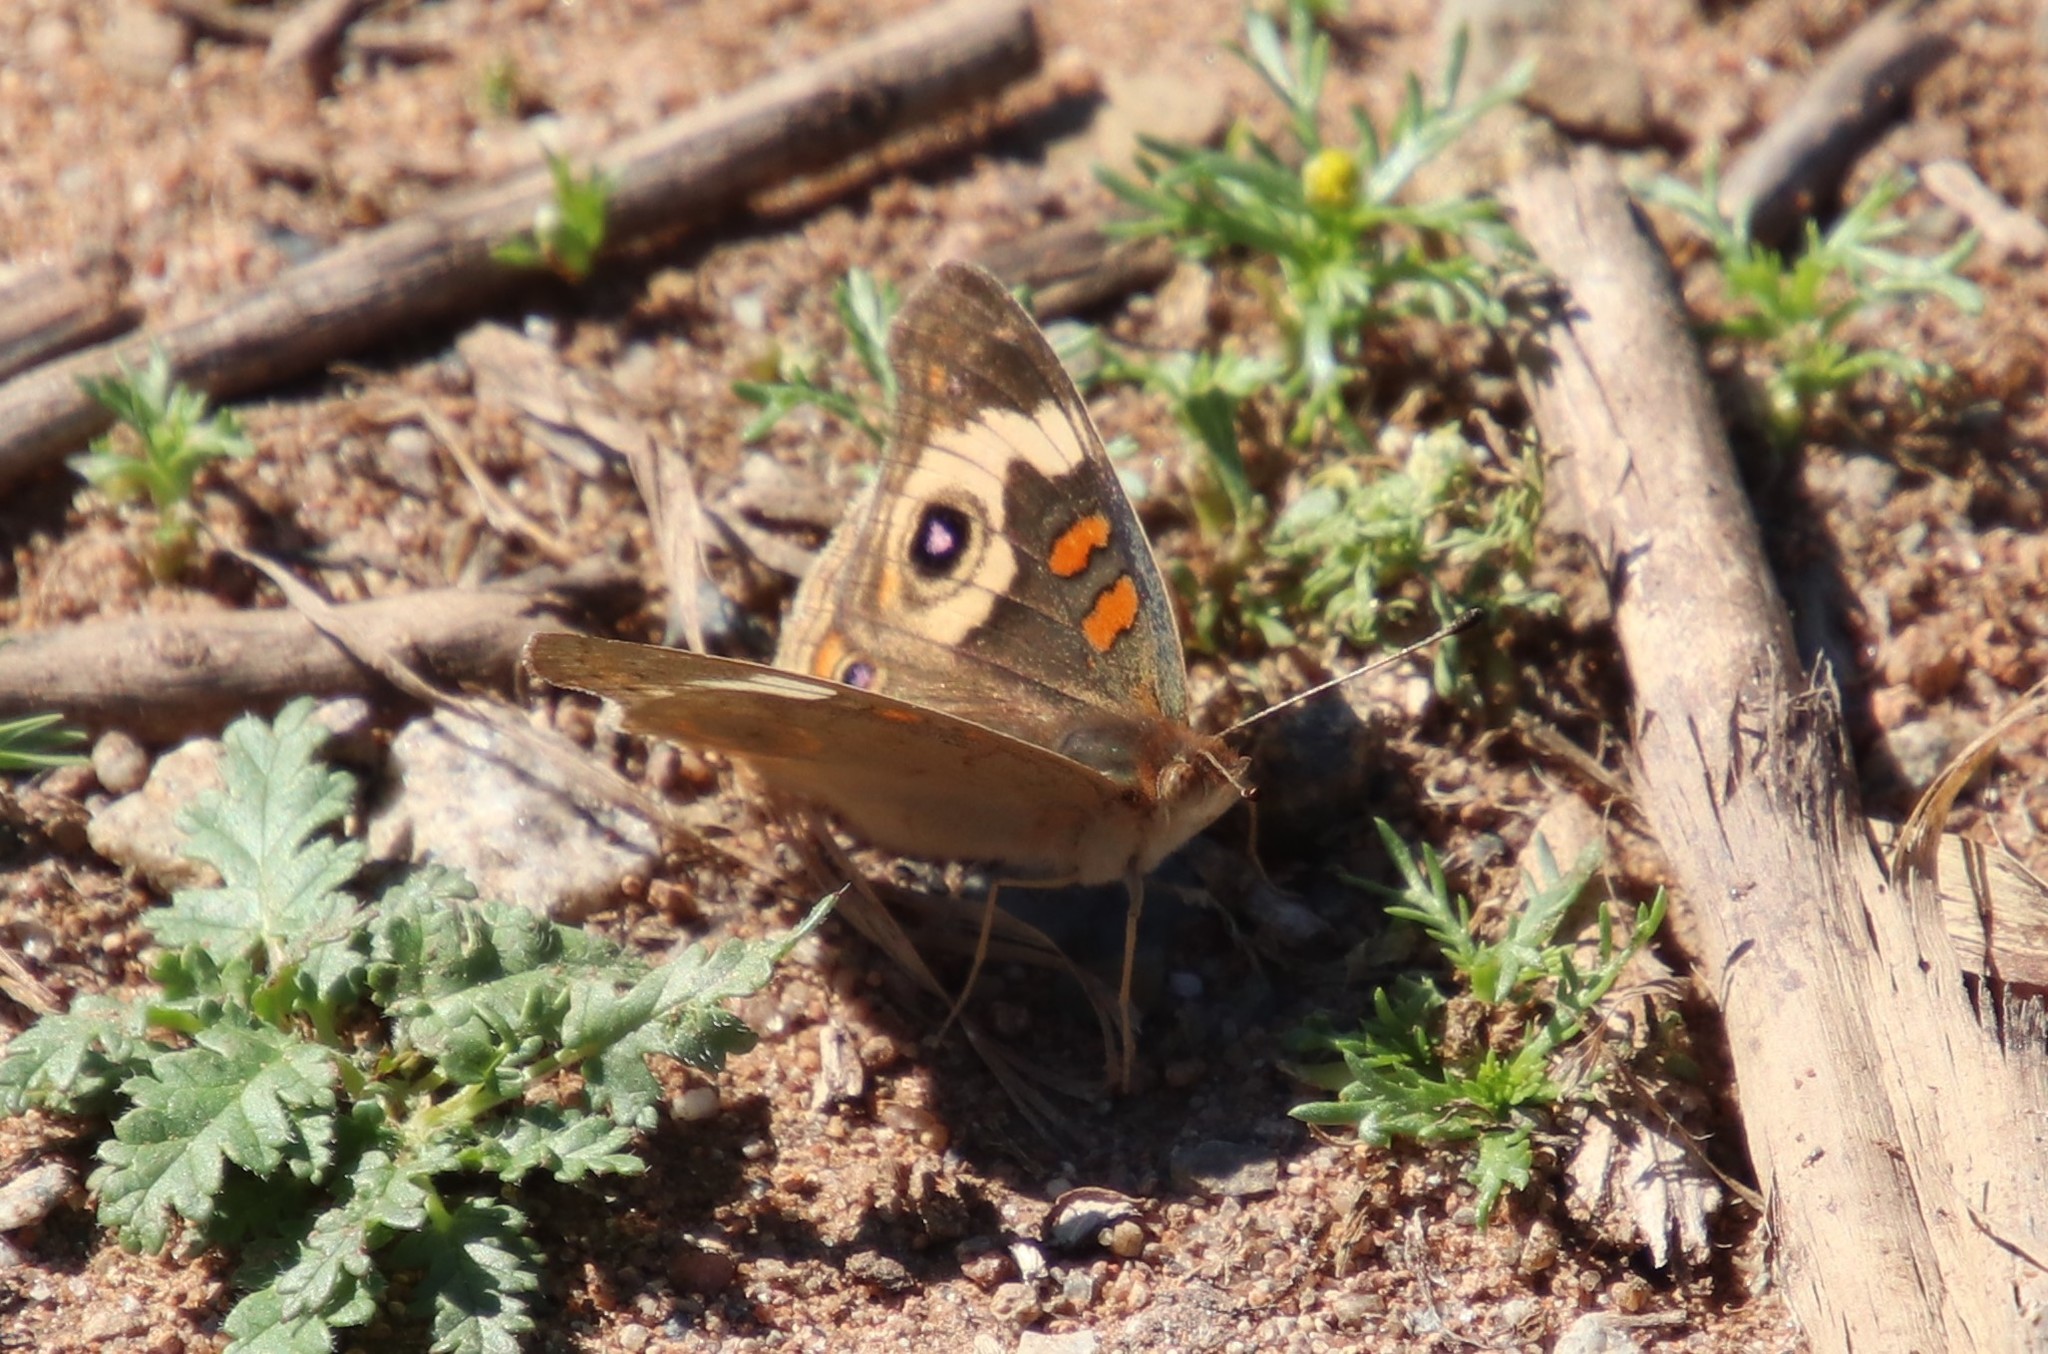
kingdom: Animalia
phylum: Arthropoda
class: Insecta
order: Lepidoptera
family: Nymphalidae
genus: Junonia
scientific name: Junonia grisea
